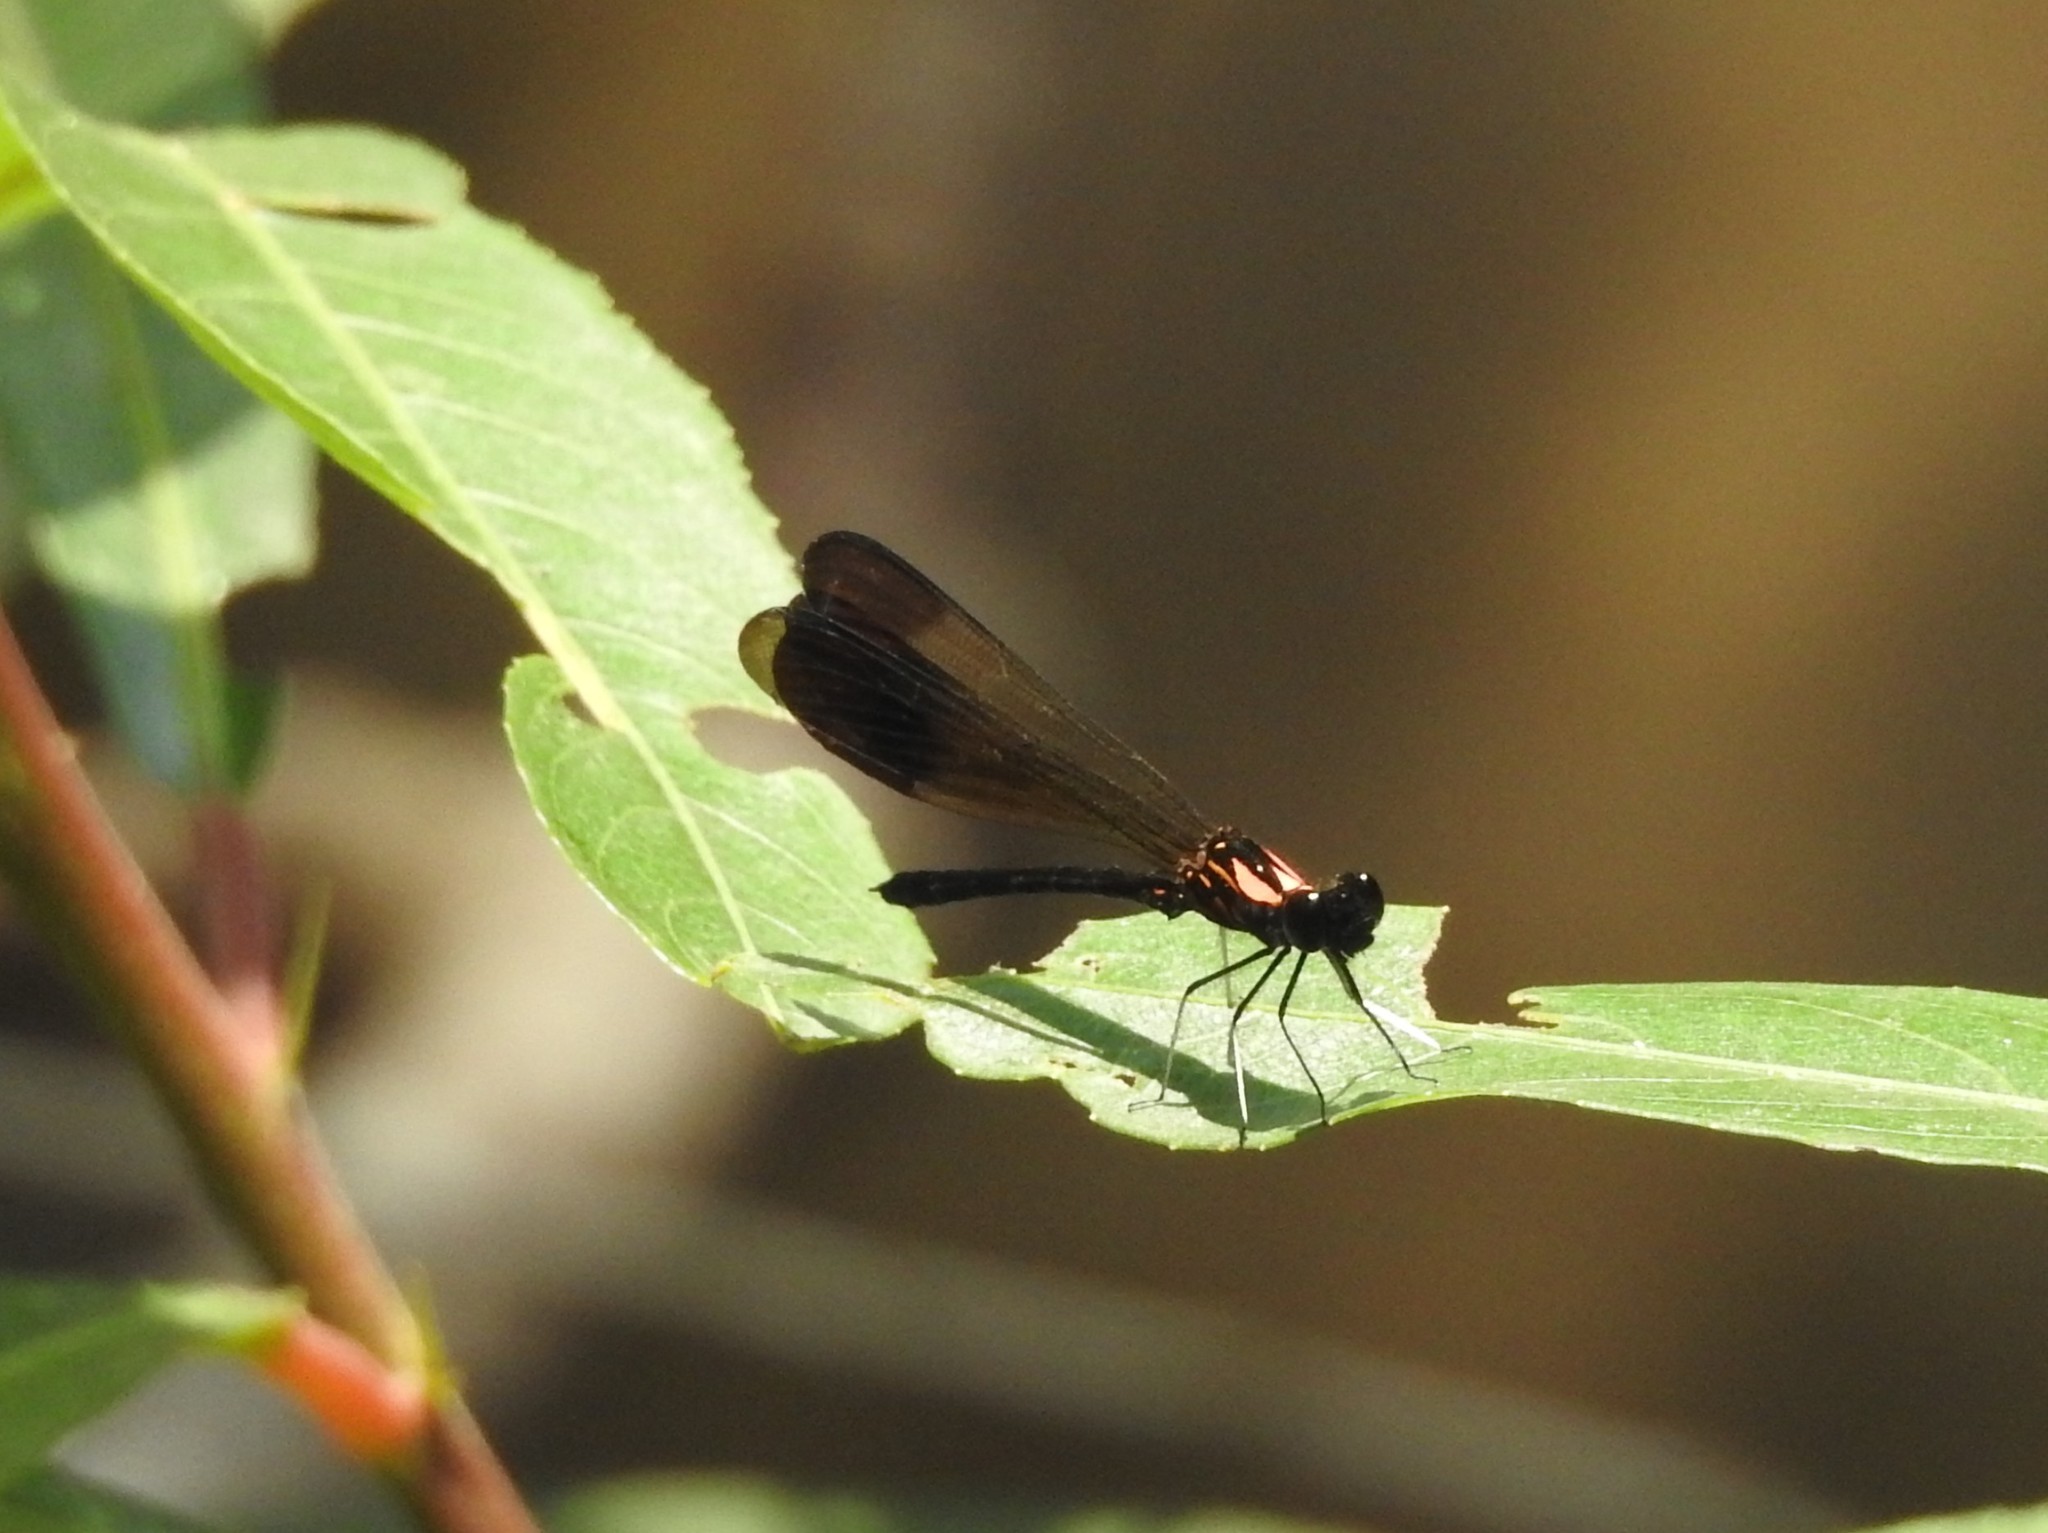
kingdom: Animalia
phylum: Arthropoda
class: Insecta
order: Odonata
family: Chlorocyphidae
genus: Heliocypha
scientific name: Heliocypha bisignata
